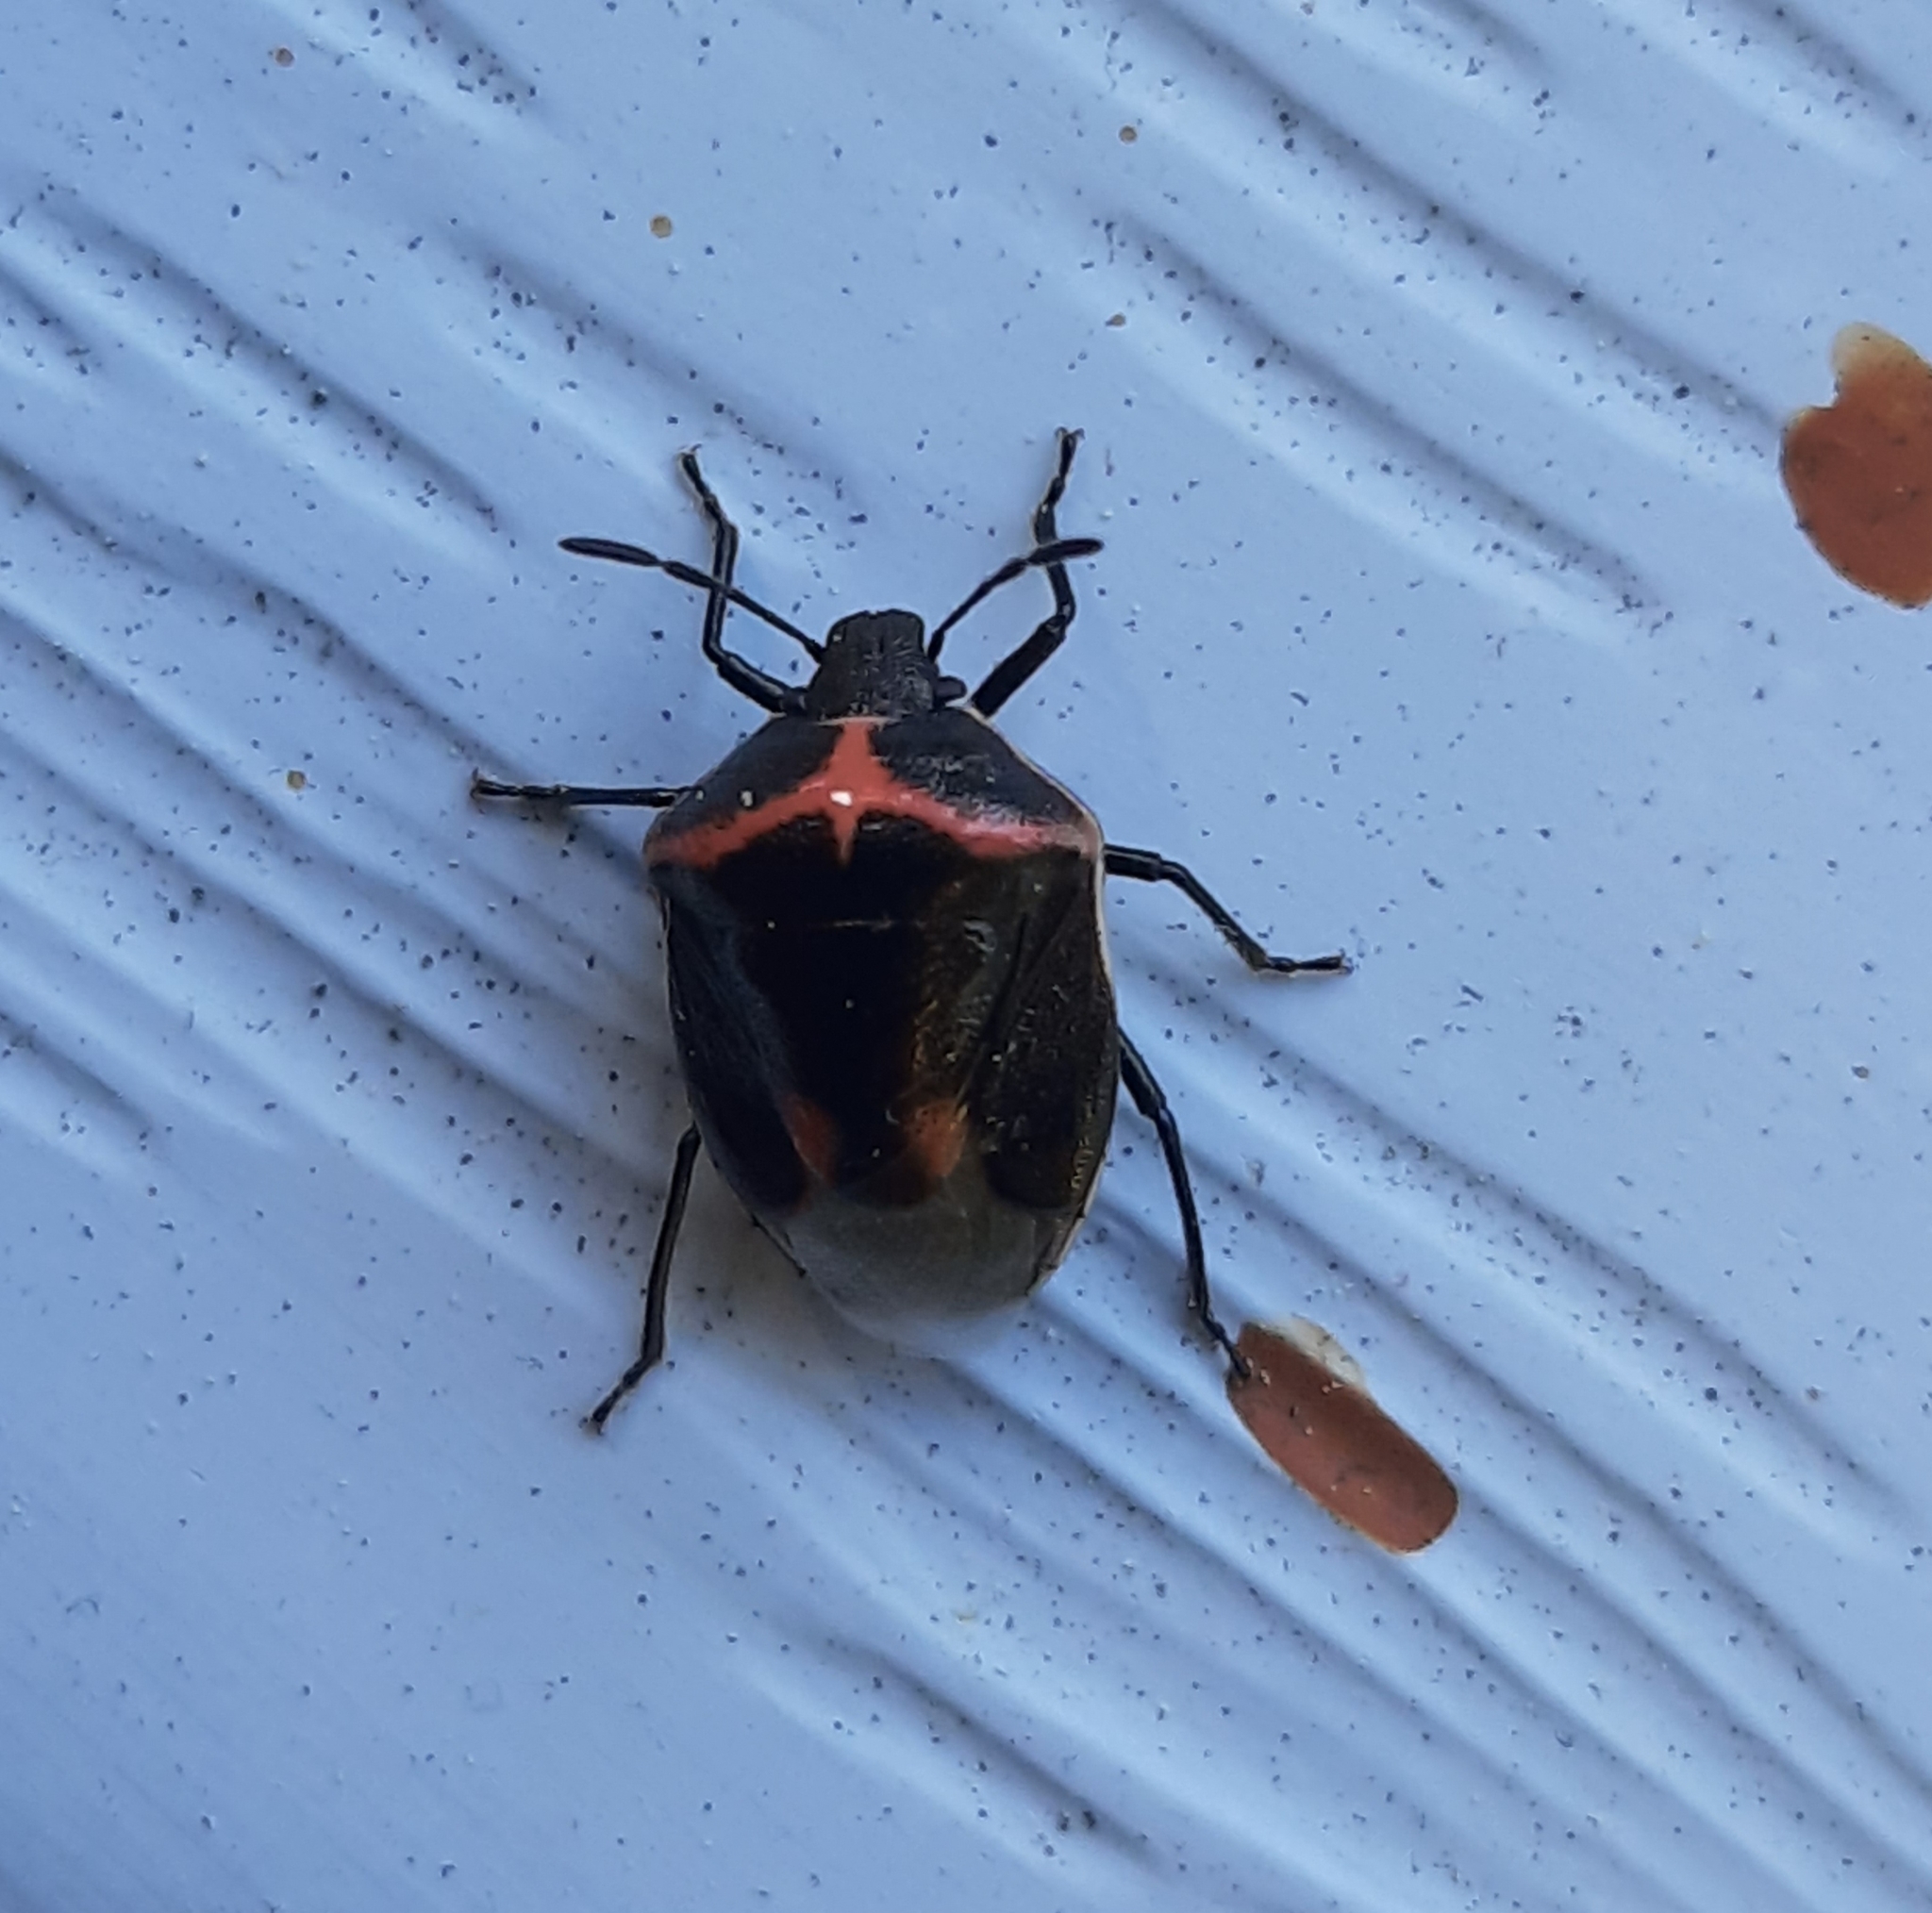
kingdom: Animalia
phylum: Arthropoda
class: Insecta
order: Hemiptera
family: Pentatomidae
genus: Cosmopepla
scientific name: Cosmopepla lintneriana
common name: Twice-stabbed stink bug
